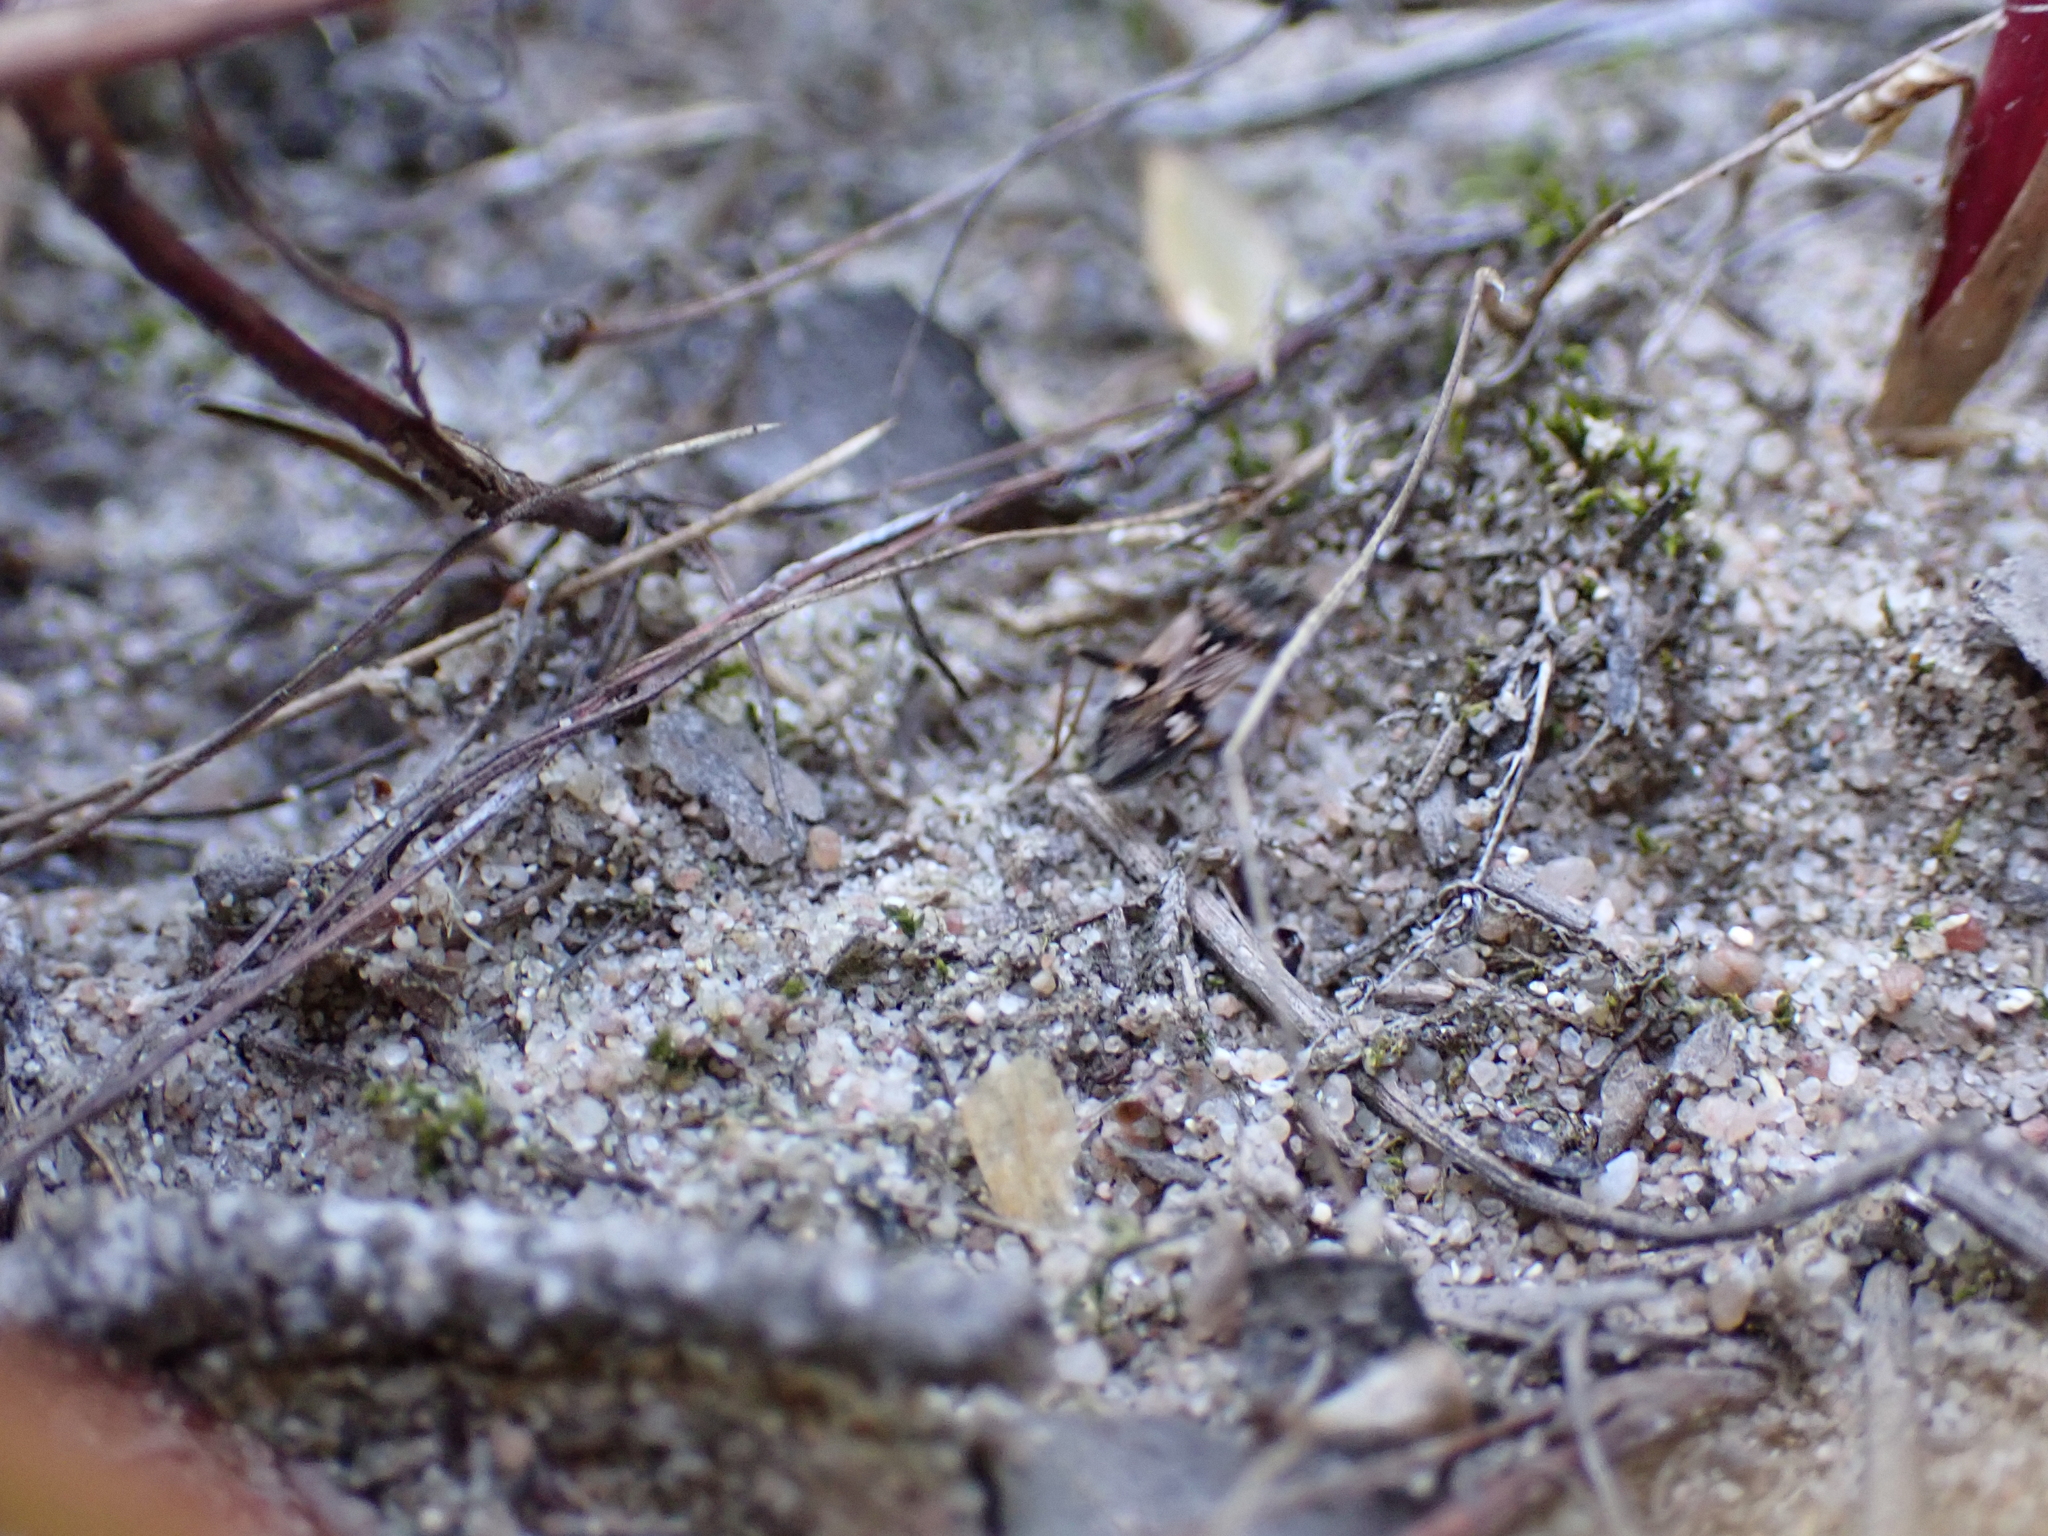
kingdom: Animalia
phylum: Arthropoda
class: Insecta
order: Hemiptera
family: Rhyparochromidae
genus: Beosus
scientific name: Beosus maritimus
